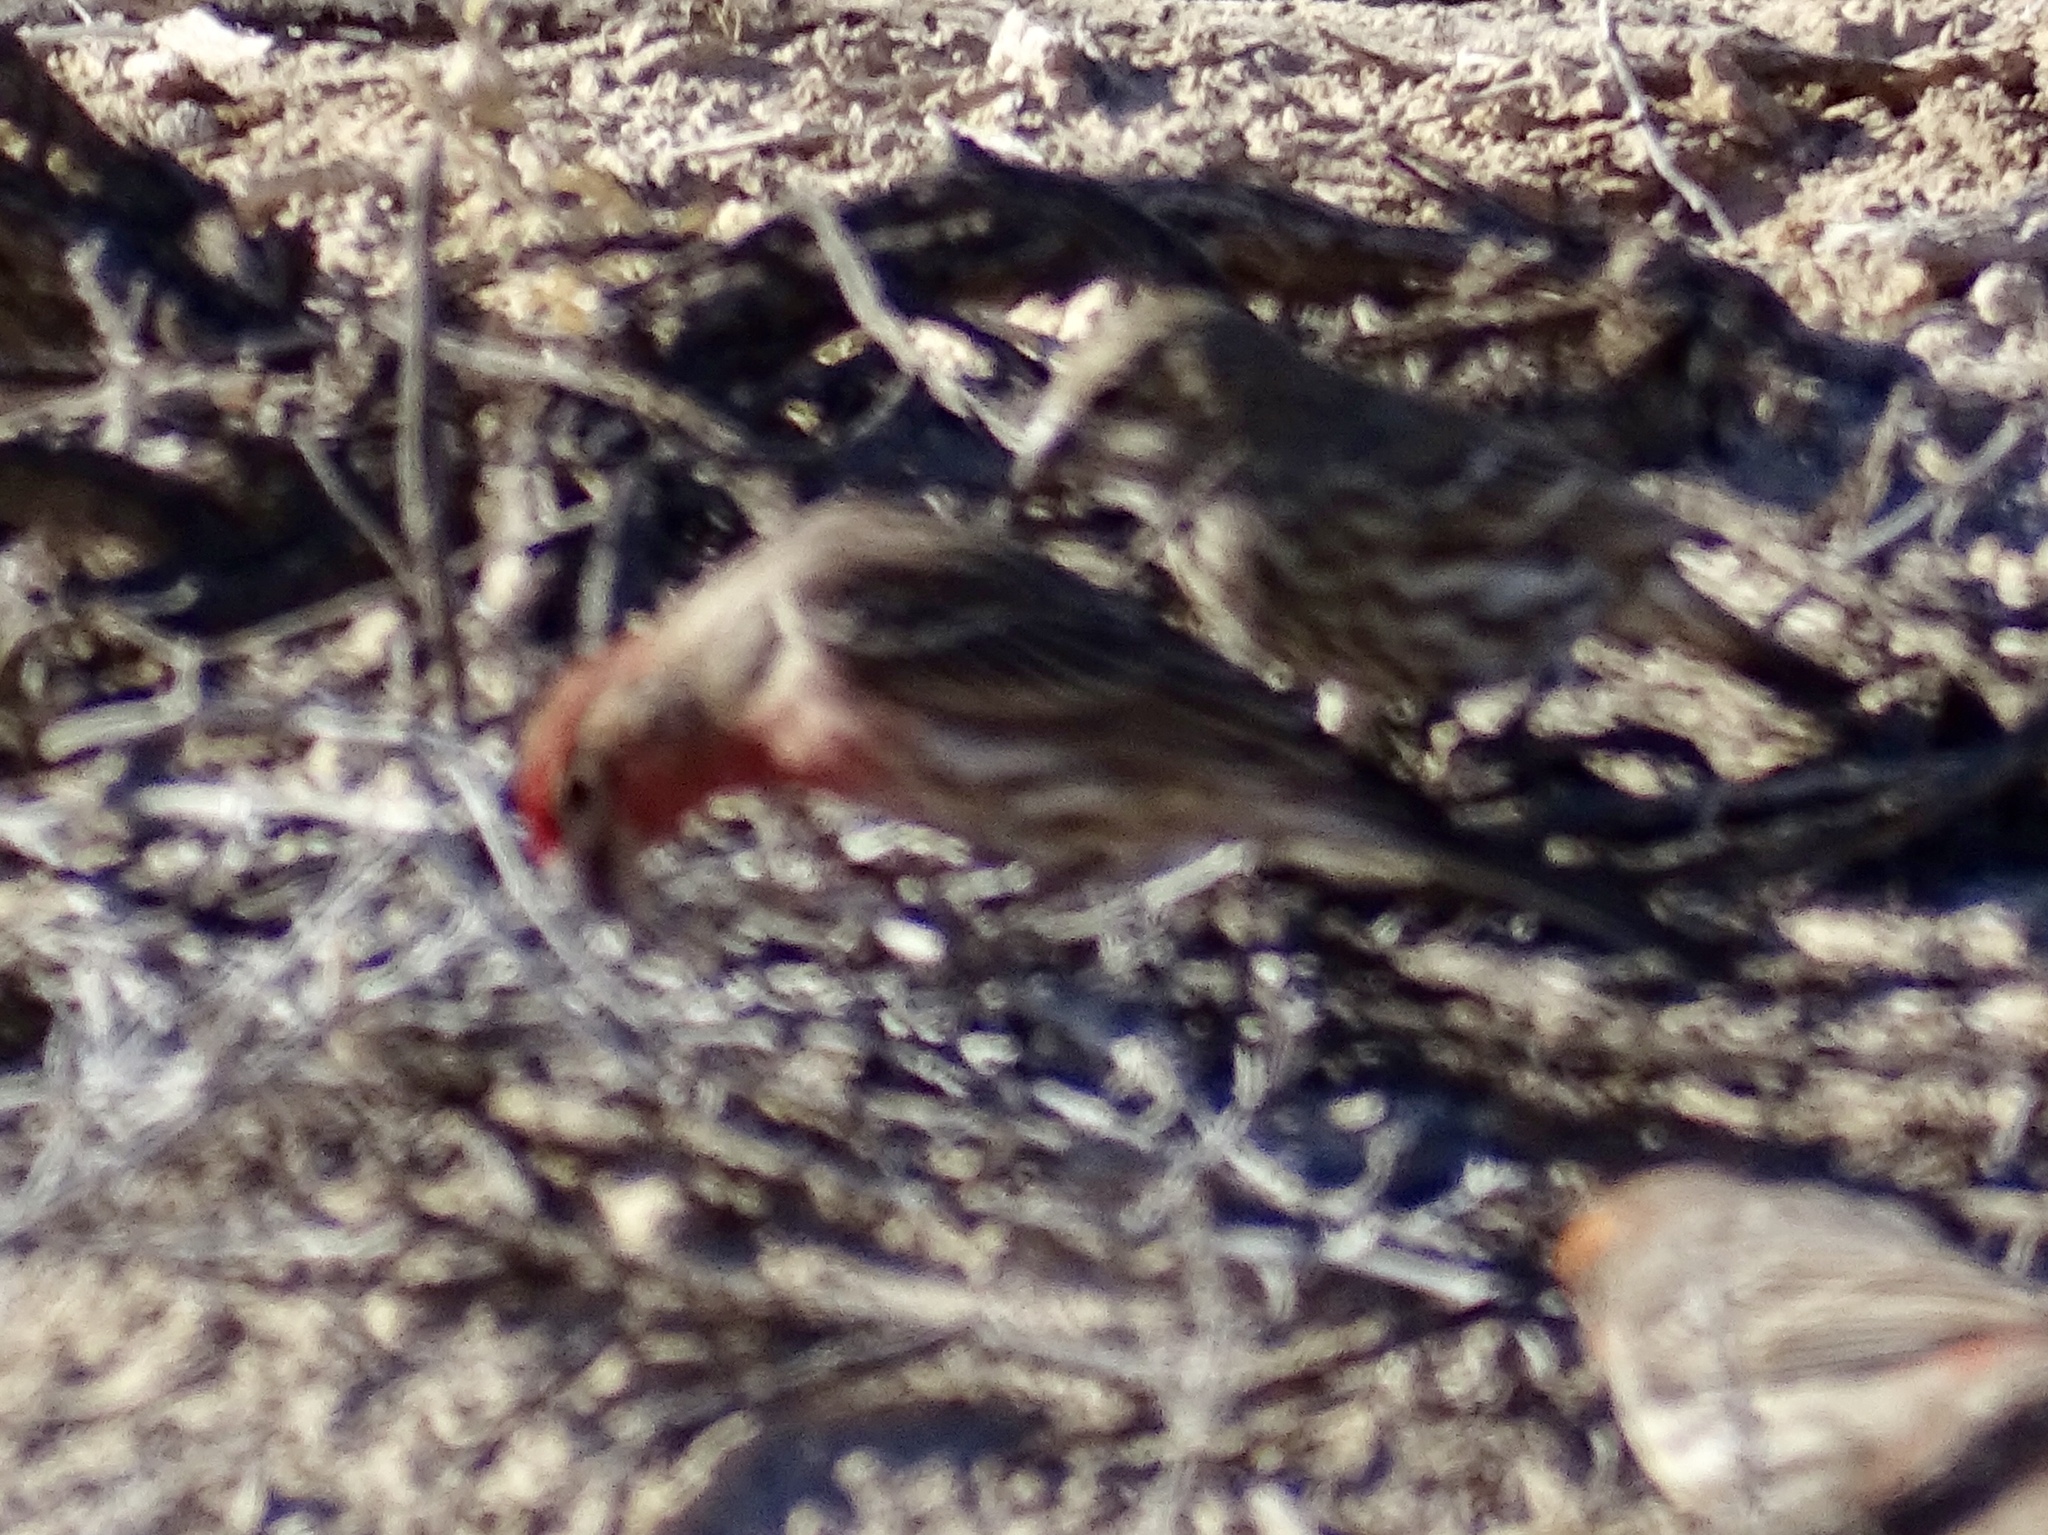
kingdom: Animalia
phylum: Chordata
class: Aves
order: Passeriformes
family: Fringillidae
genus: Haemorhous
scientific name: Haemorhous mexicanus
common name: House finch
